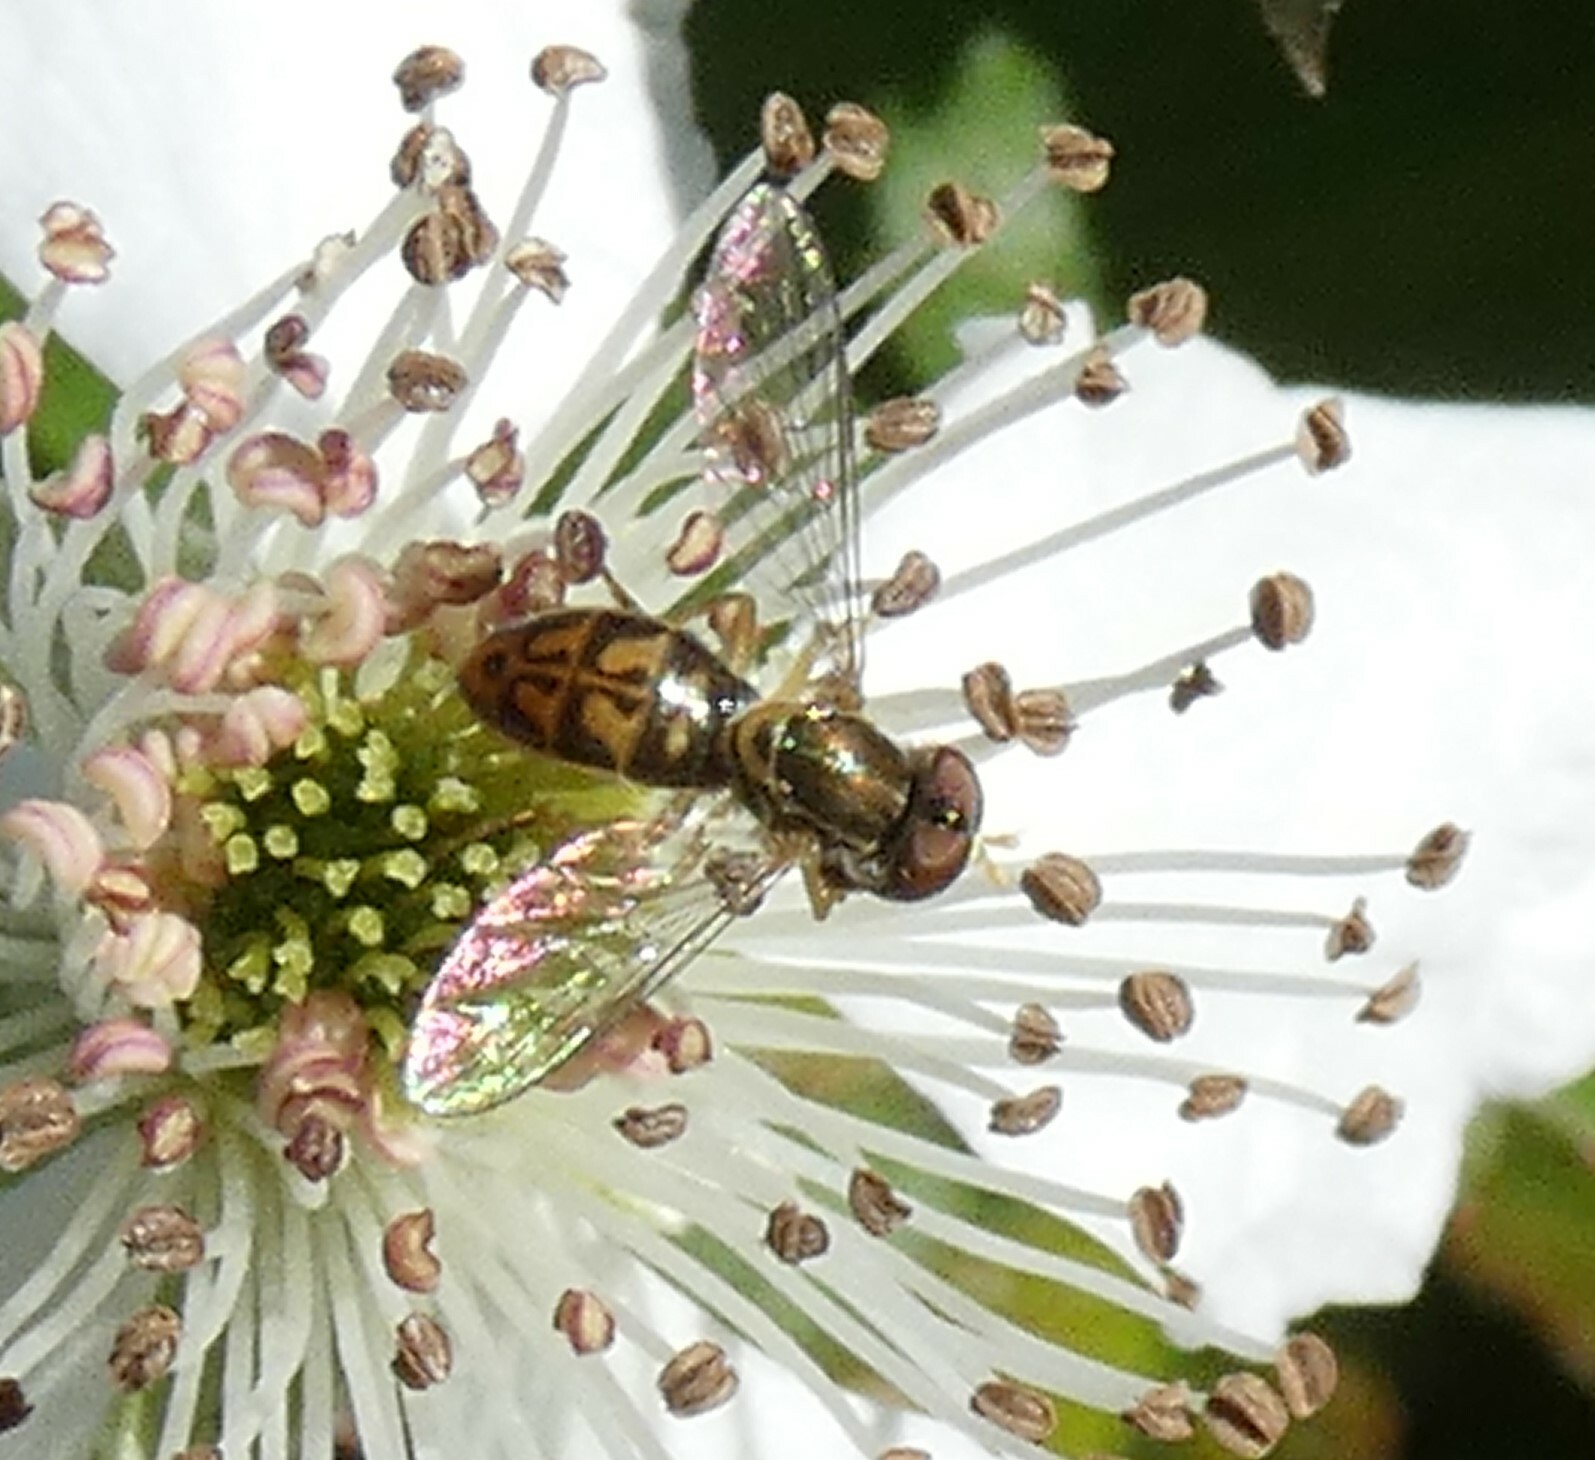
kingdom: Animalia
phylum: Arthropoda
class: Insecta
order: Diptera
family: Syrphidae
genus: Toxomerus
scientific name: Toxomerus marginatus
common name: Syrphid fly
